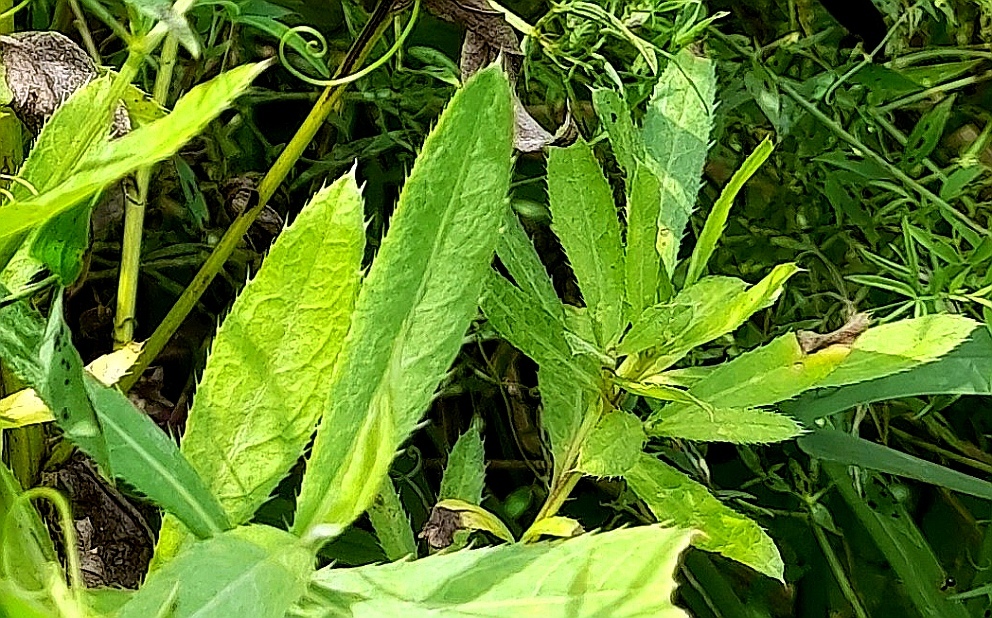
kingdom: Plantae
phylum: Tracheophyta
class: Magnoliopsida
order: Asterales
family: Asteraceae
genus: Cirsium
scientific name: Cirsium arvense
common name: Creeping thistle
